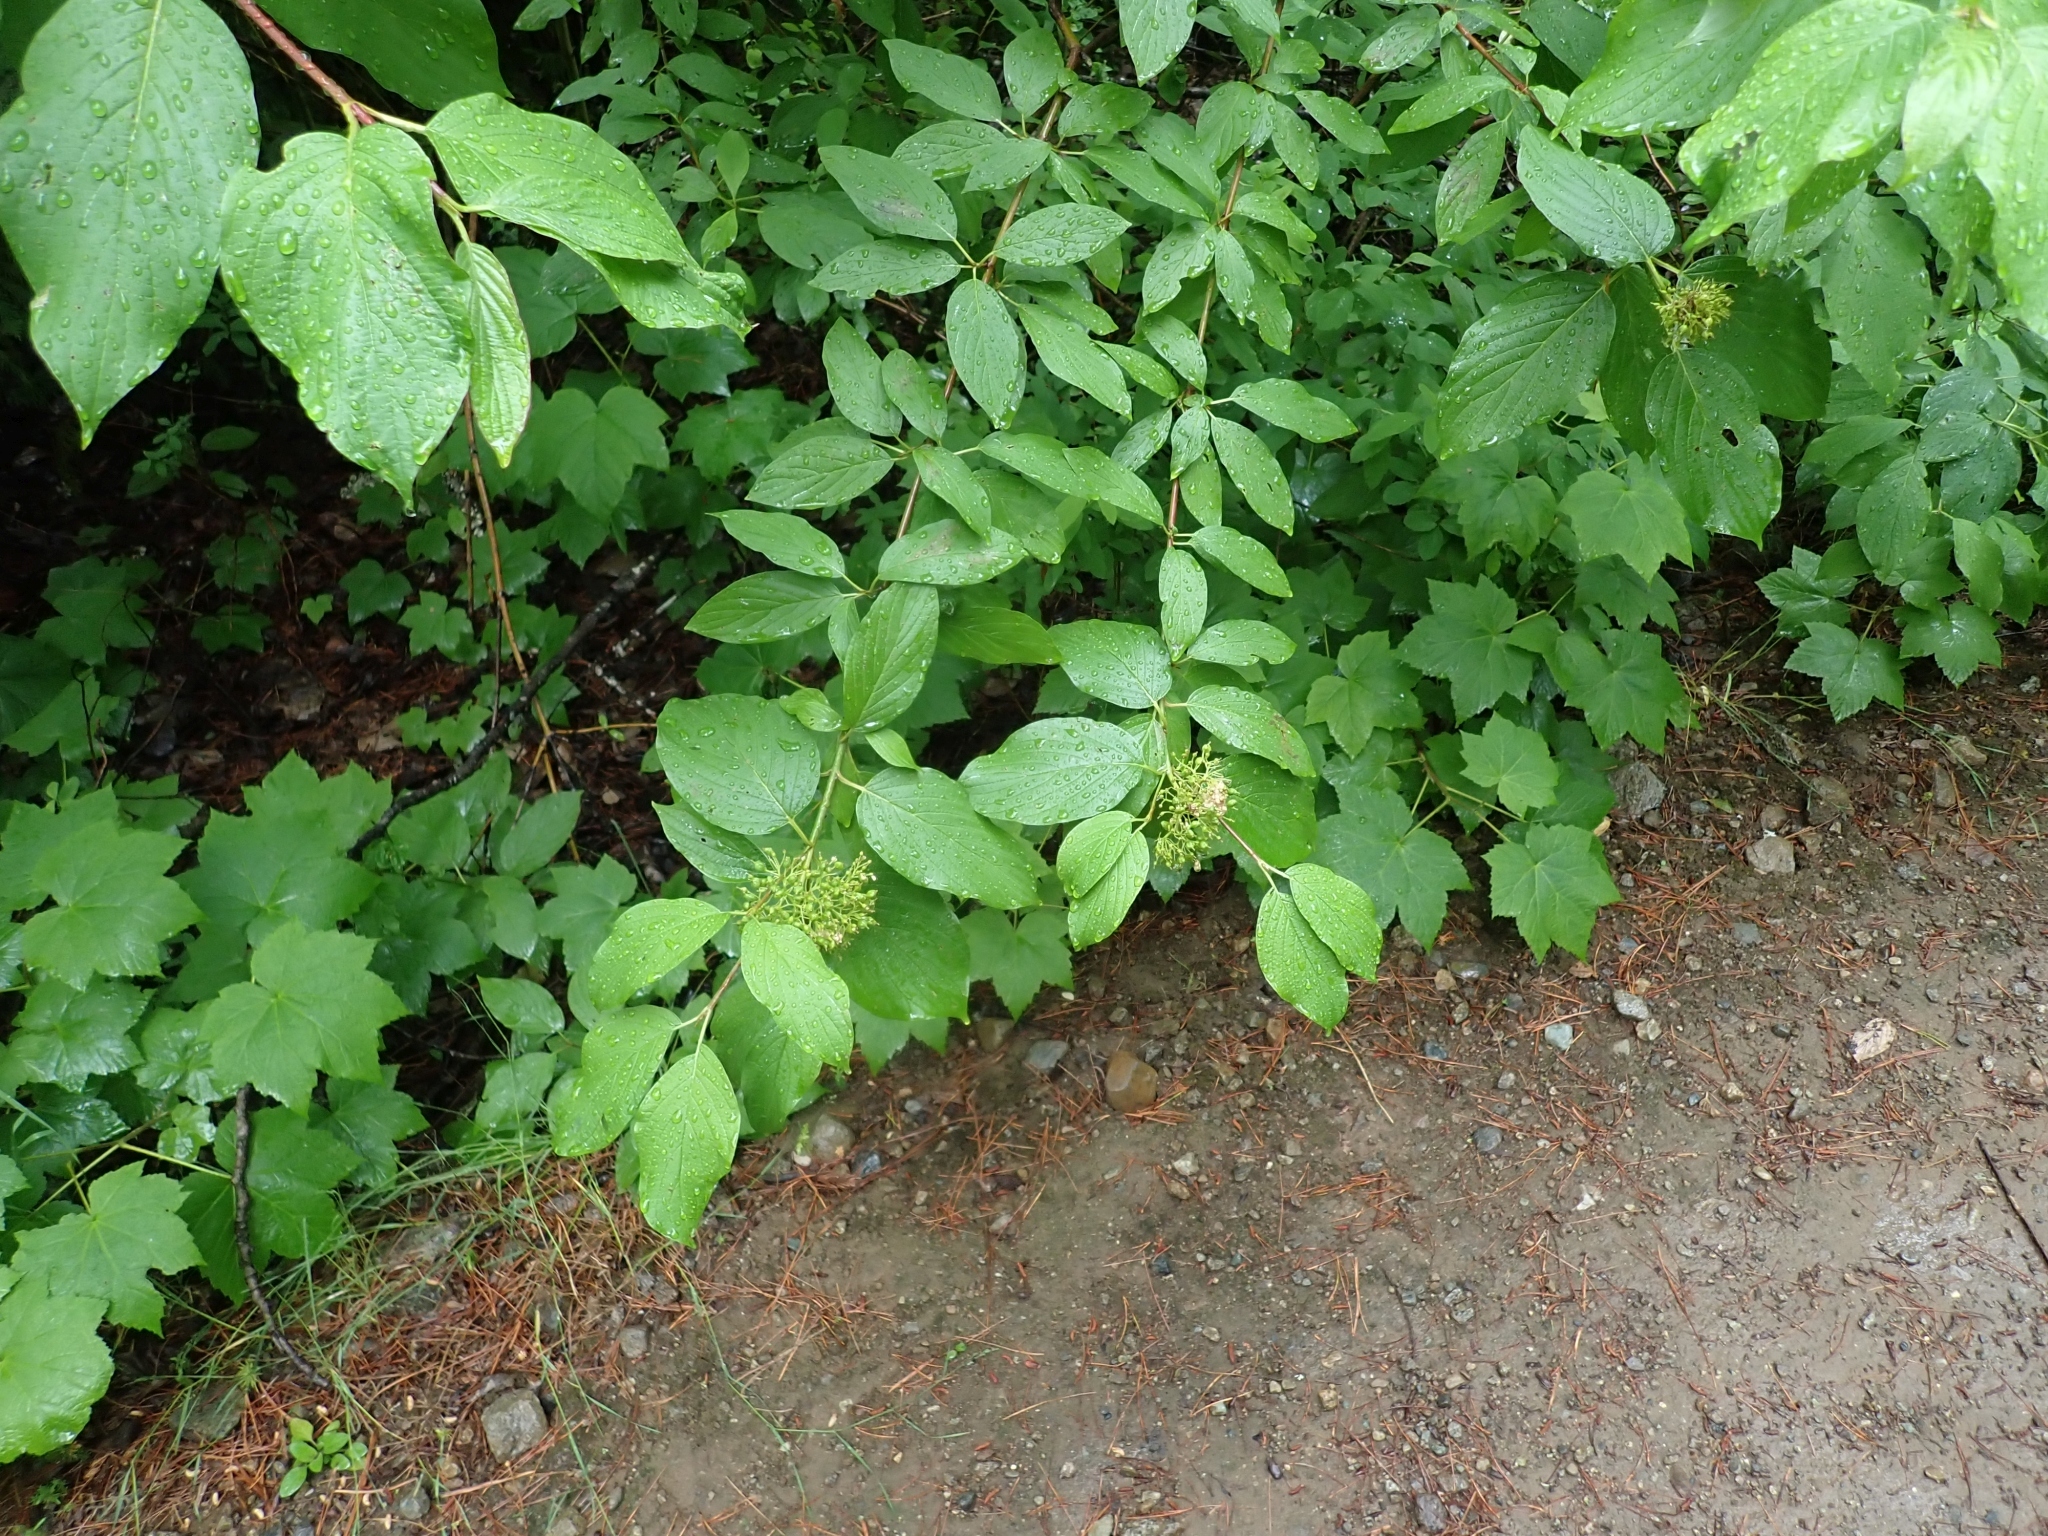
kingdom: Plantae
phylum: Tracheophyta
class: Magnoliopsida
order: Cornales
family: Cornaceae
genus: Cornus
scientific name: Cornus sericea
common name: Red-osier dogwood
